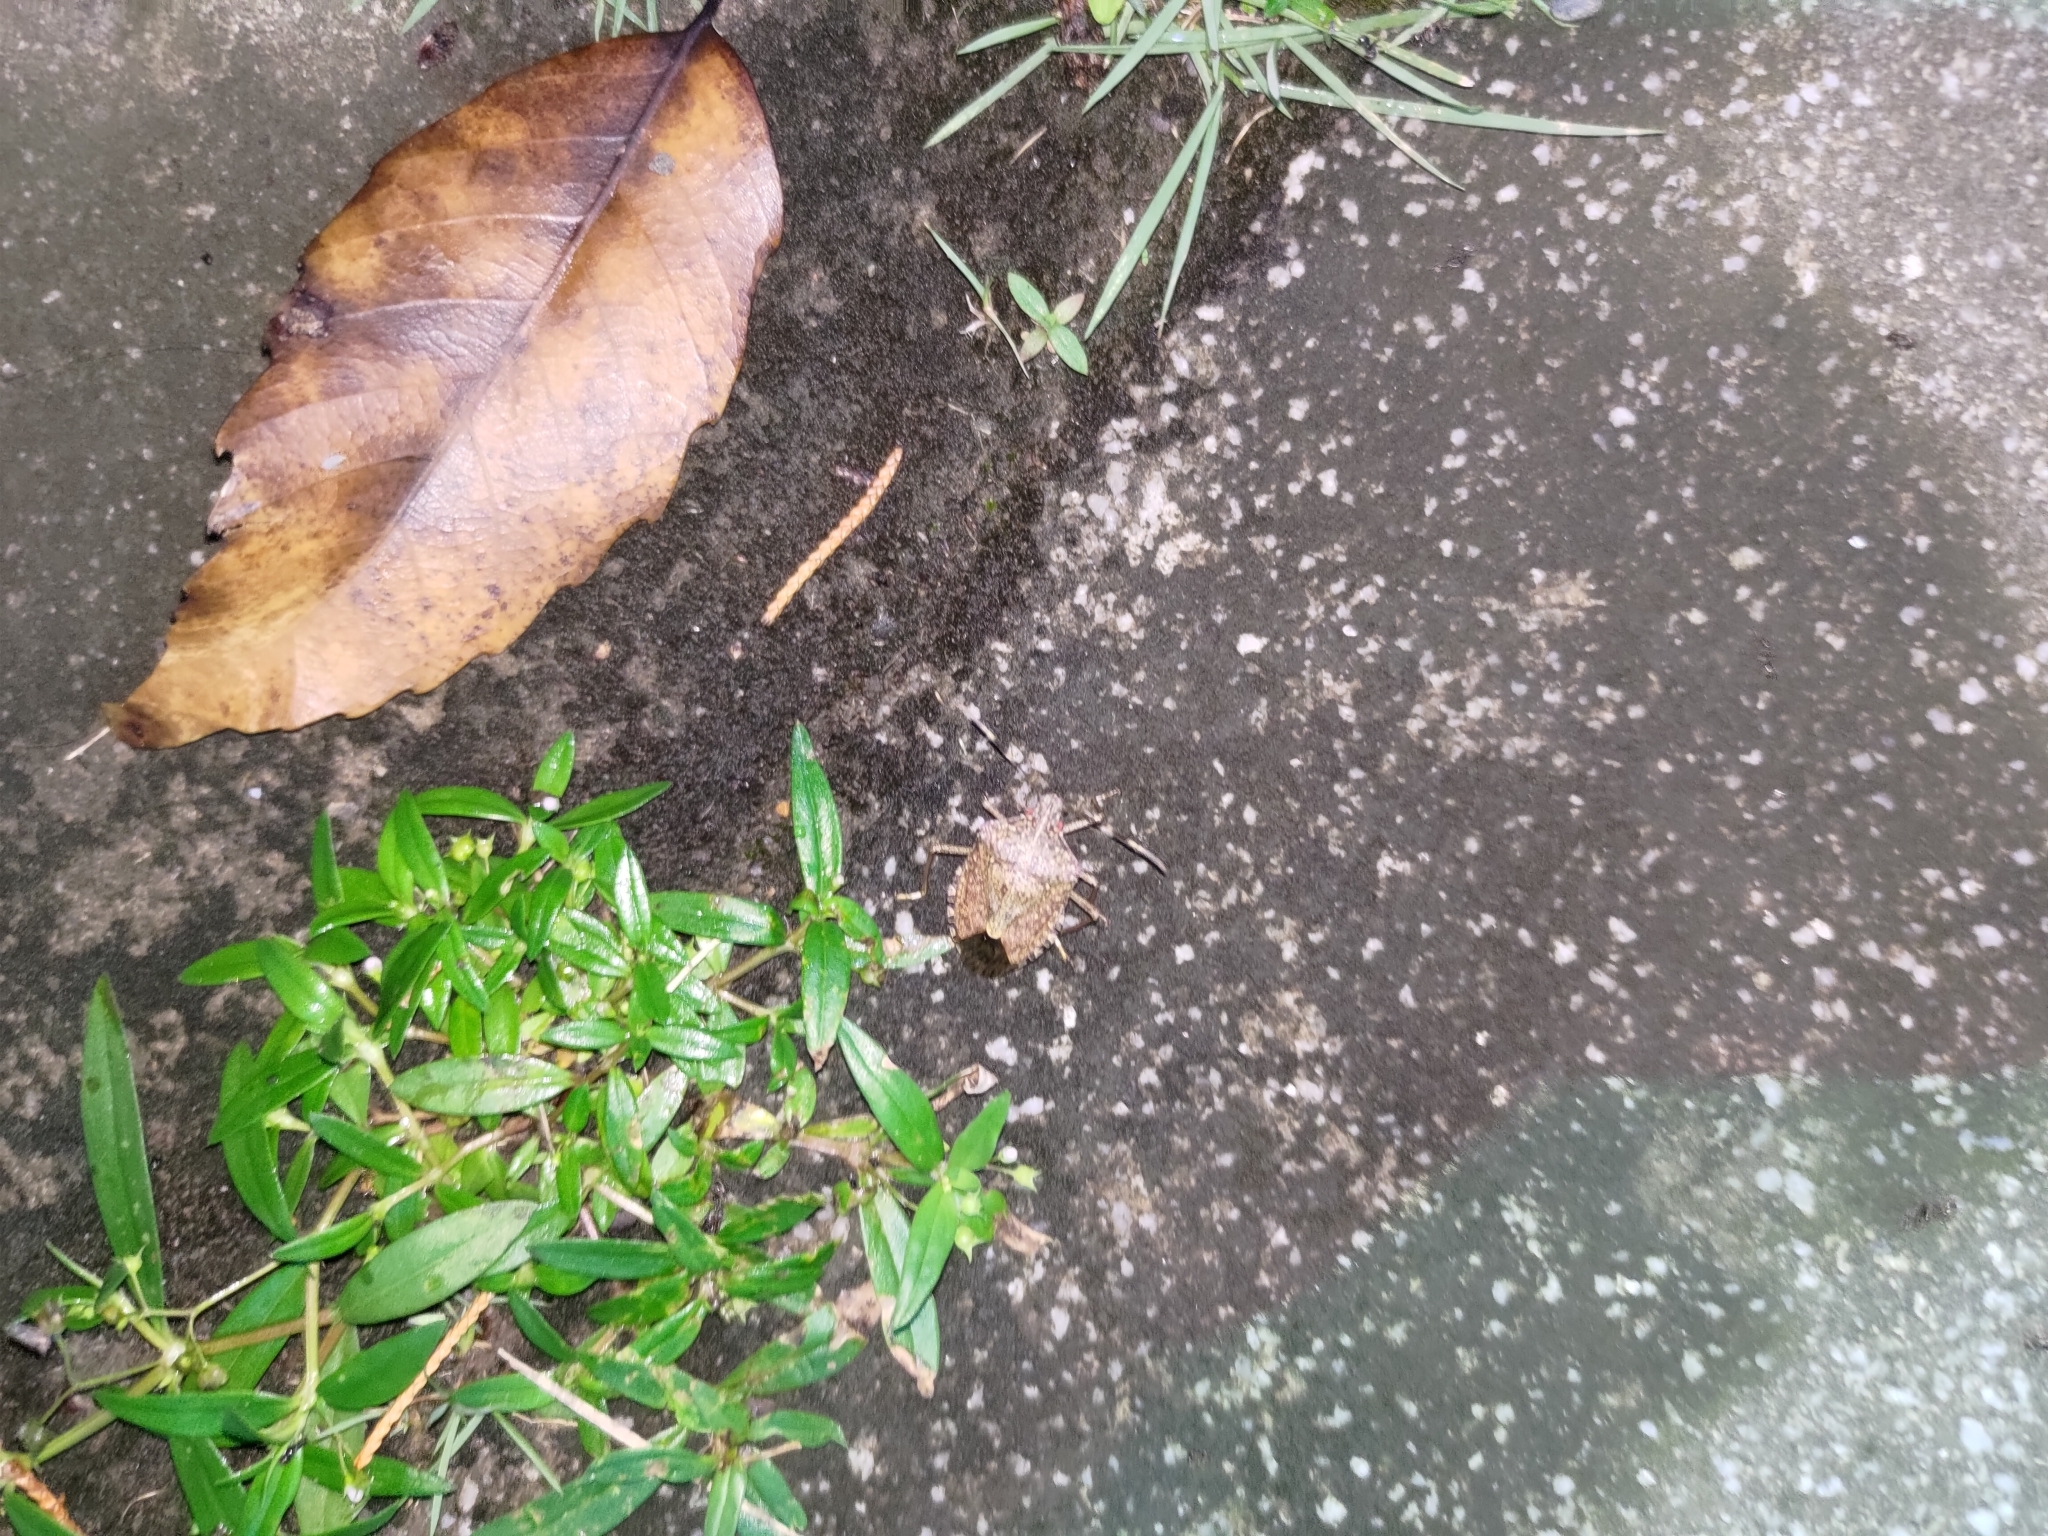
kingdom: Animalia
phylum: Arthropoda
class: Insecta
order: Hemiptera
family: Pentatomidae
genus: Halyomorpha
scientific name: Halyomorpha halys
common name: Brown marmorated stink bug
